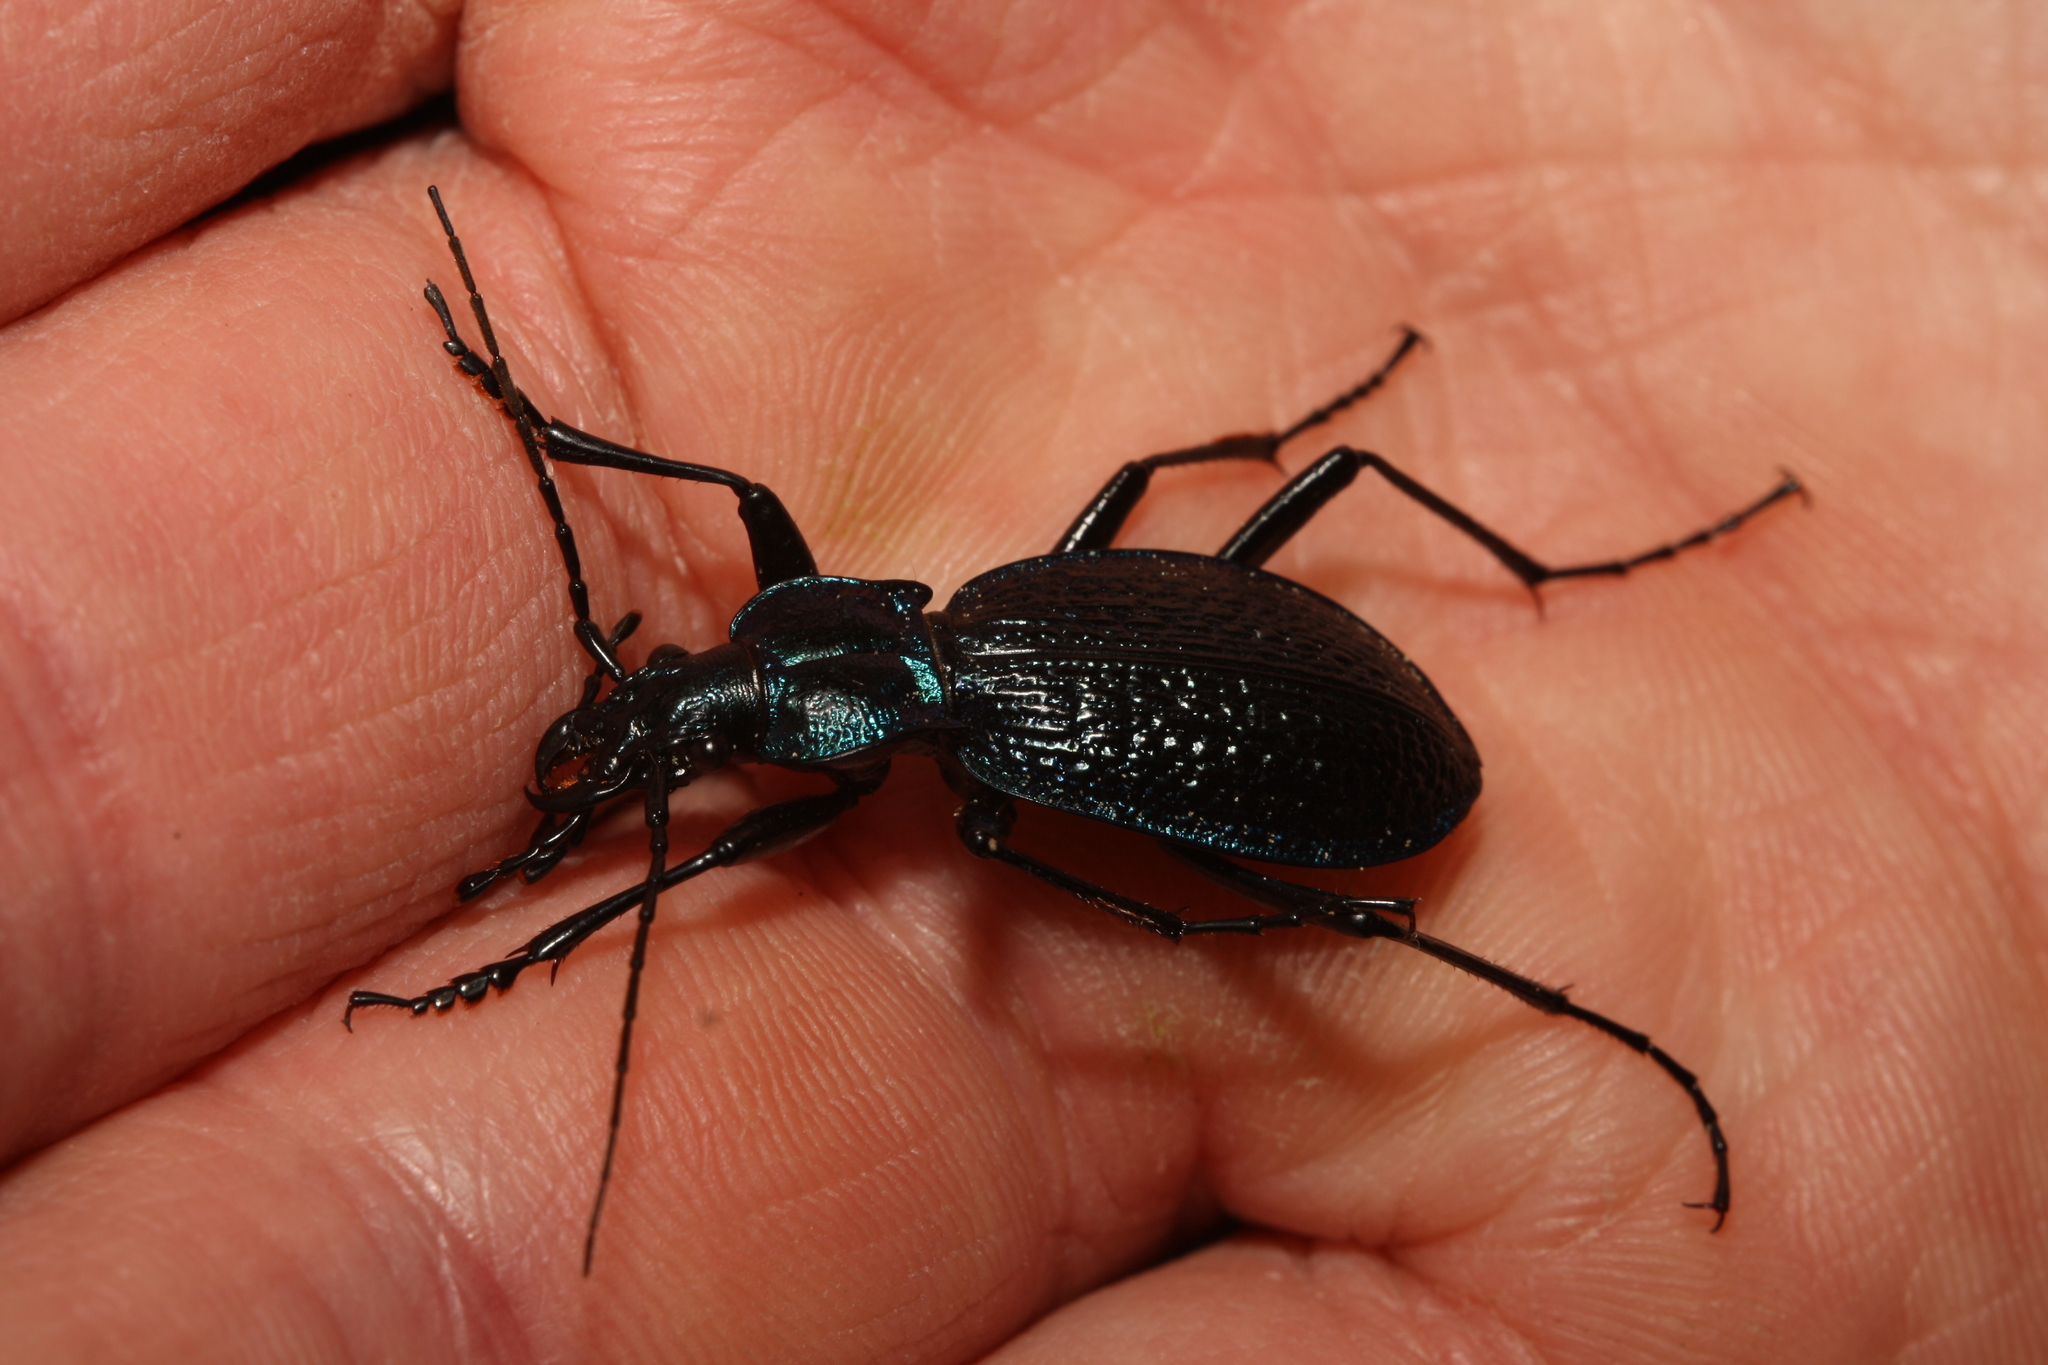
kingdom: Animalia
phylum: Arthropoda
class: Insecta
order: Coleoptera
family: Carabidae
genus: Carabus
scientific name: Carabus intricatus
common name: Blue ground beetle
